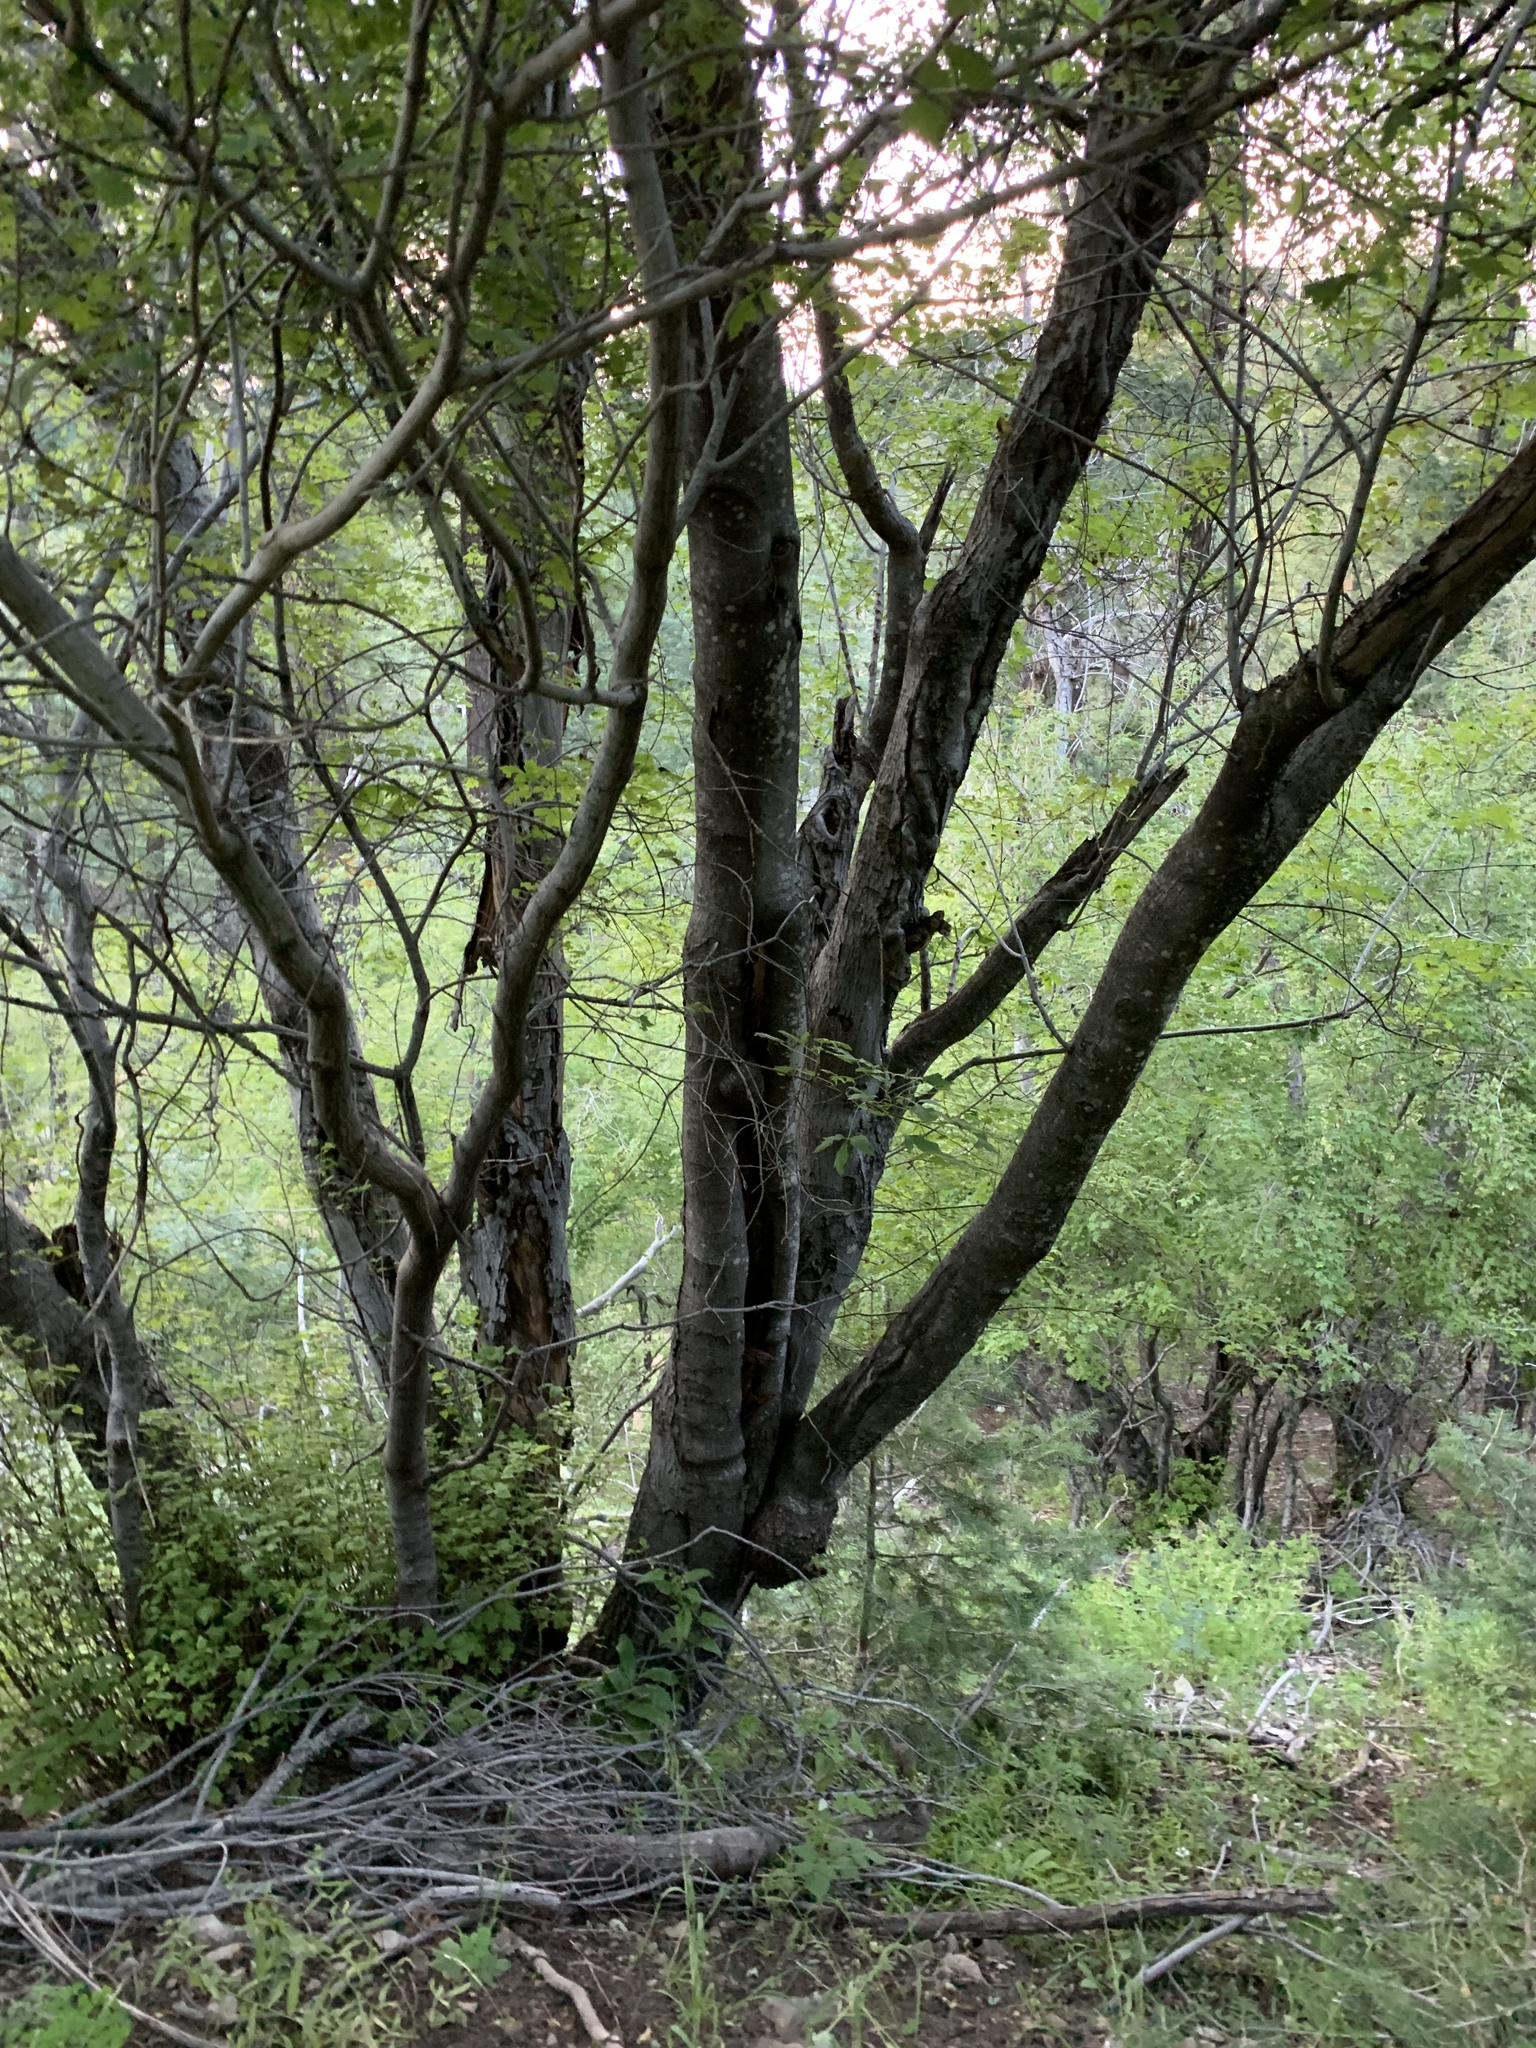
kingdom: Plantae
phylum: Tracheophyta
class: Magnoliopsida
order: Sapindales
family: Sapindaceae
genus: Acer
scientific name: Acer negundo
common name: Ashleaf maple
